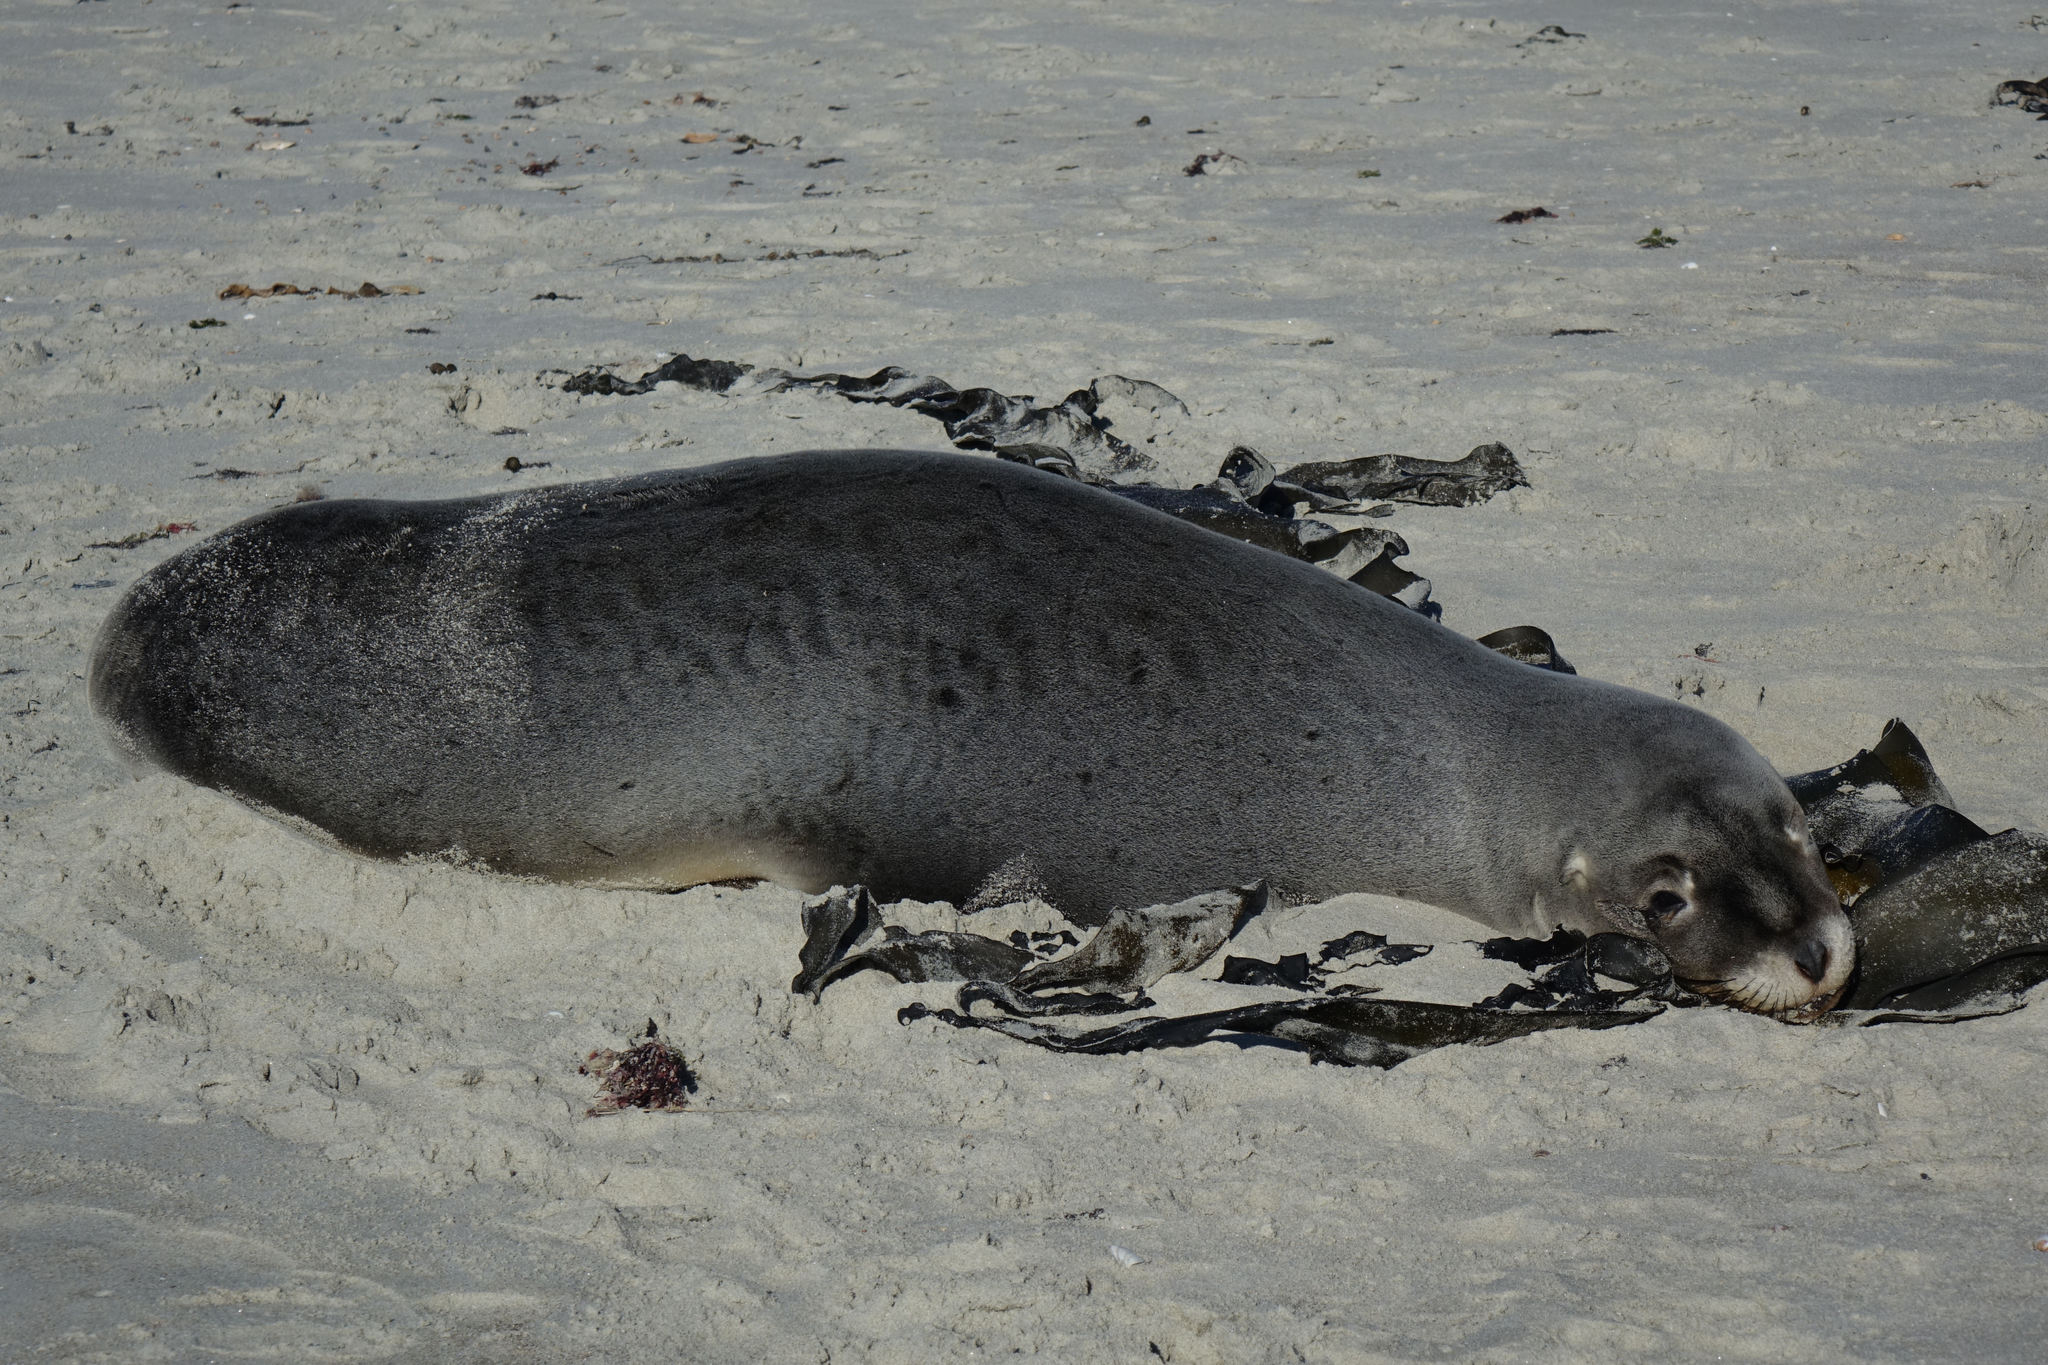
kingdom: Animalia
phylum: Chordata
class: Mammalia
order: Carnivora
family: Otariidae
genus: Phocarctos
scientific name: Phocarctos hookeri
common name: New zealand sea lion
